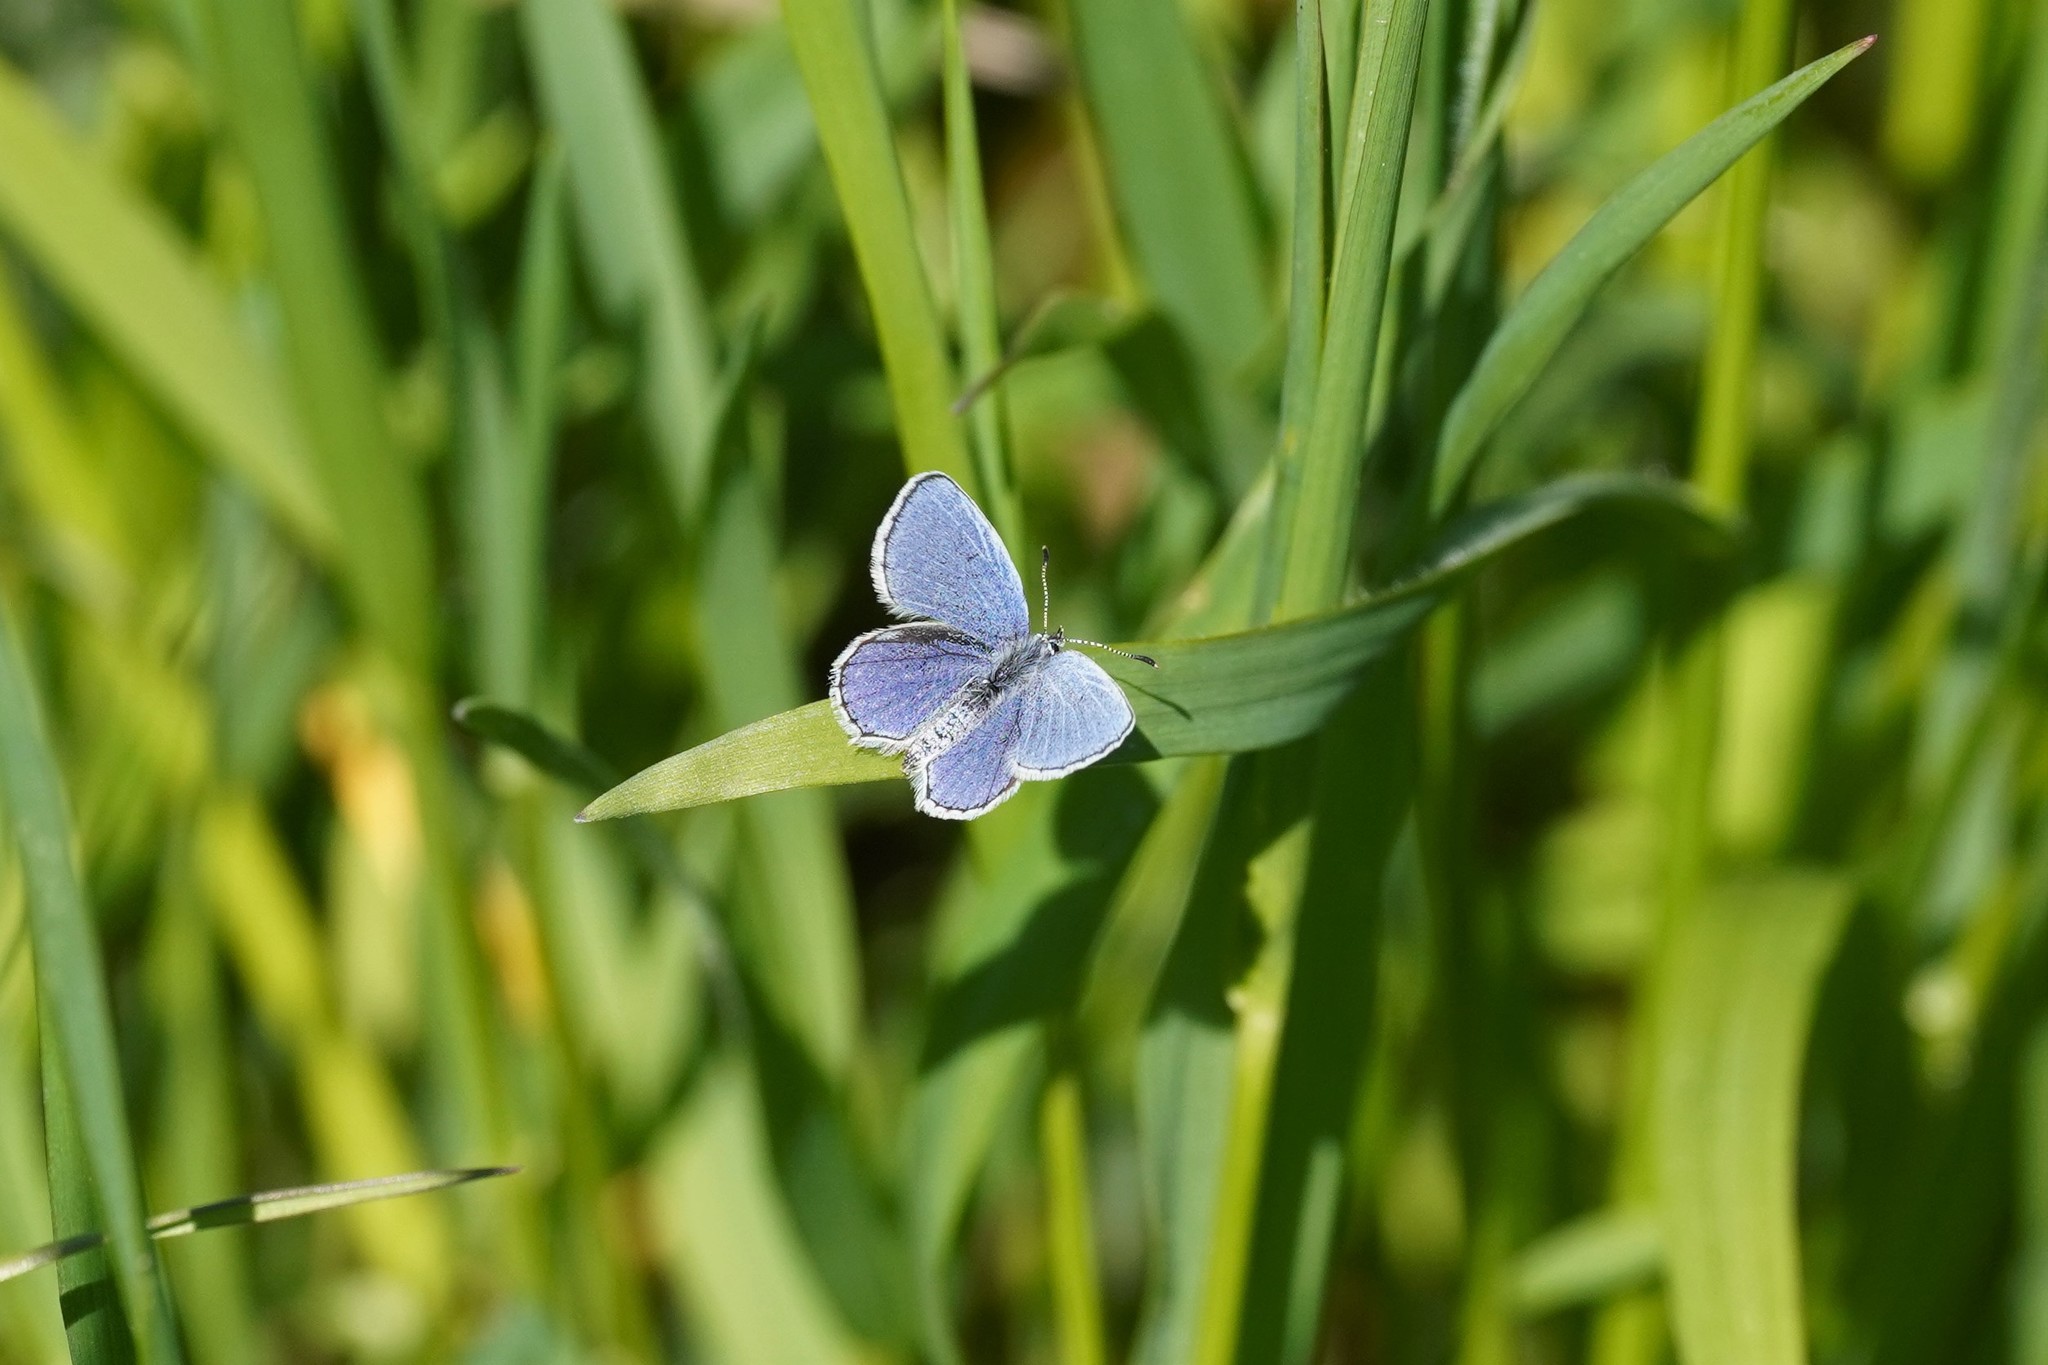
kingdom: Animalia
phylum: Arthropoda
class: Insecta
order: Lepidoptera
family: Lycaenidae
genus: Elkalyce
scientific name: Elkalyce argiades
